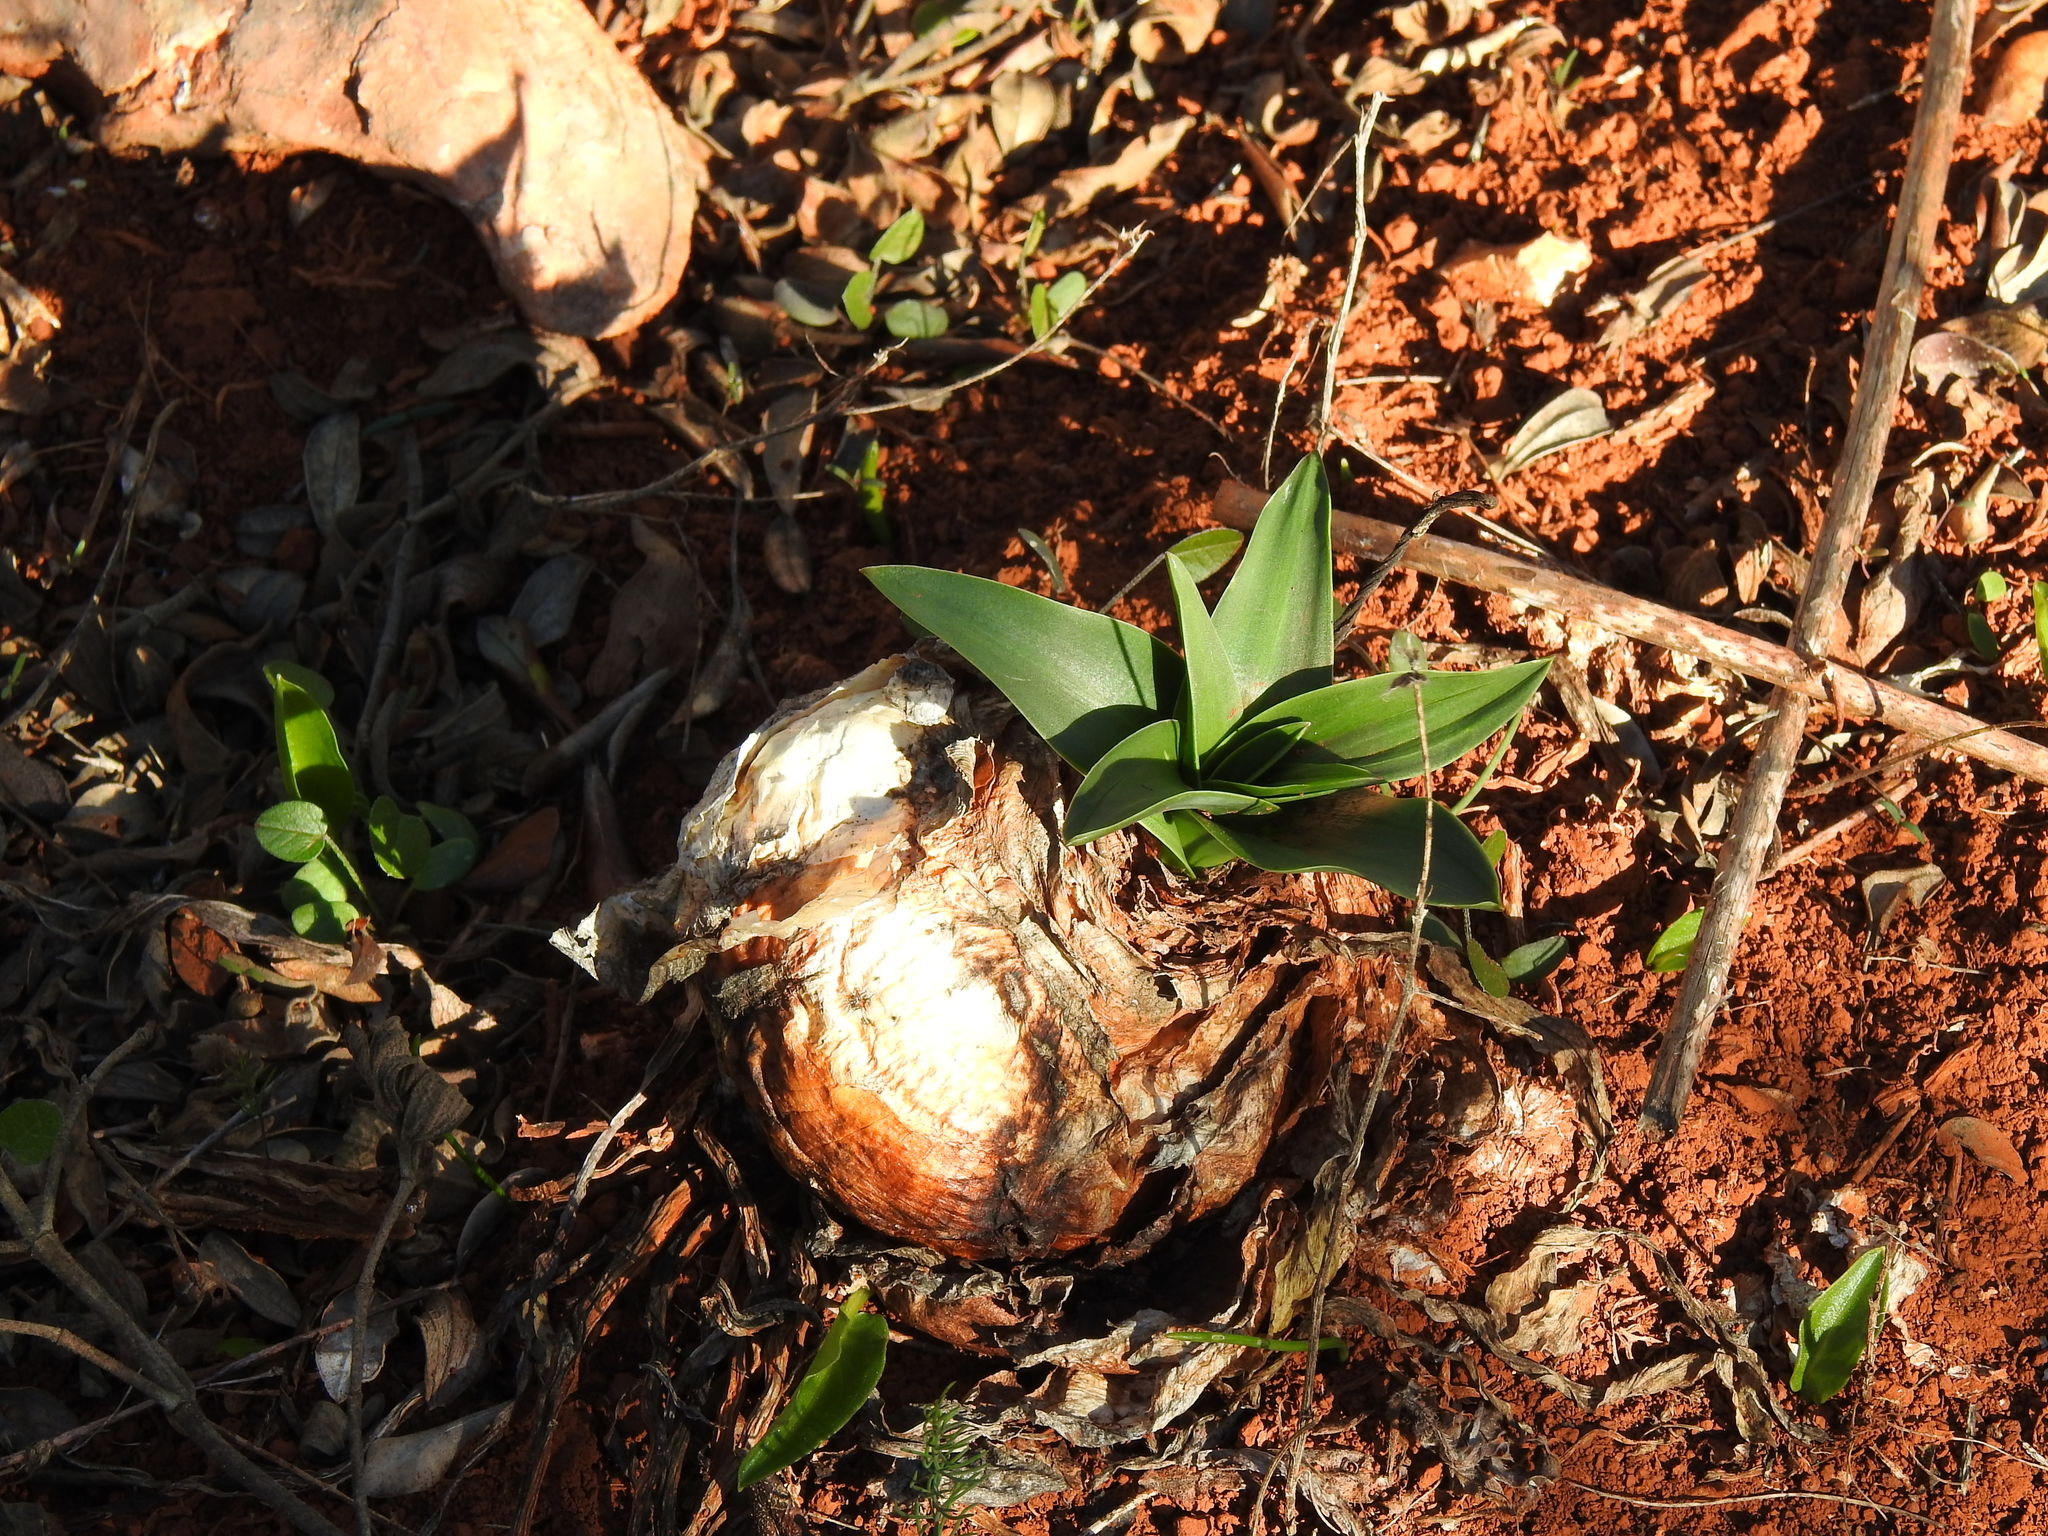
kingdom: Plantae
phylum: Tracheophyta
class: Liliopsida
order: Asparagales
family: Asparagaceae
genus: Drimia
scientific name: Drimia maritima
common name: Maritime squill
